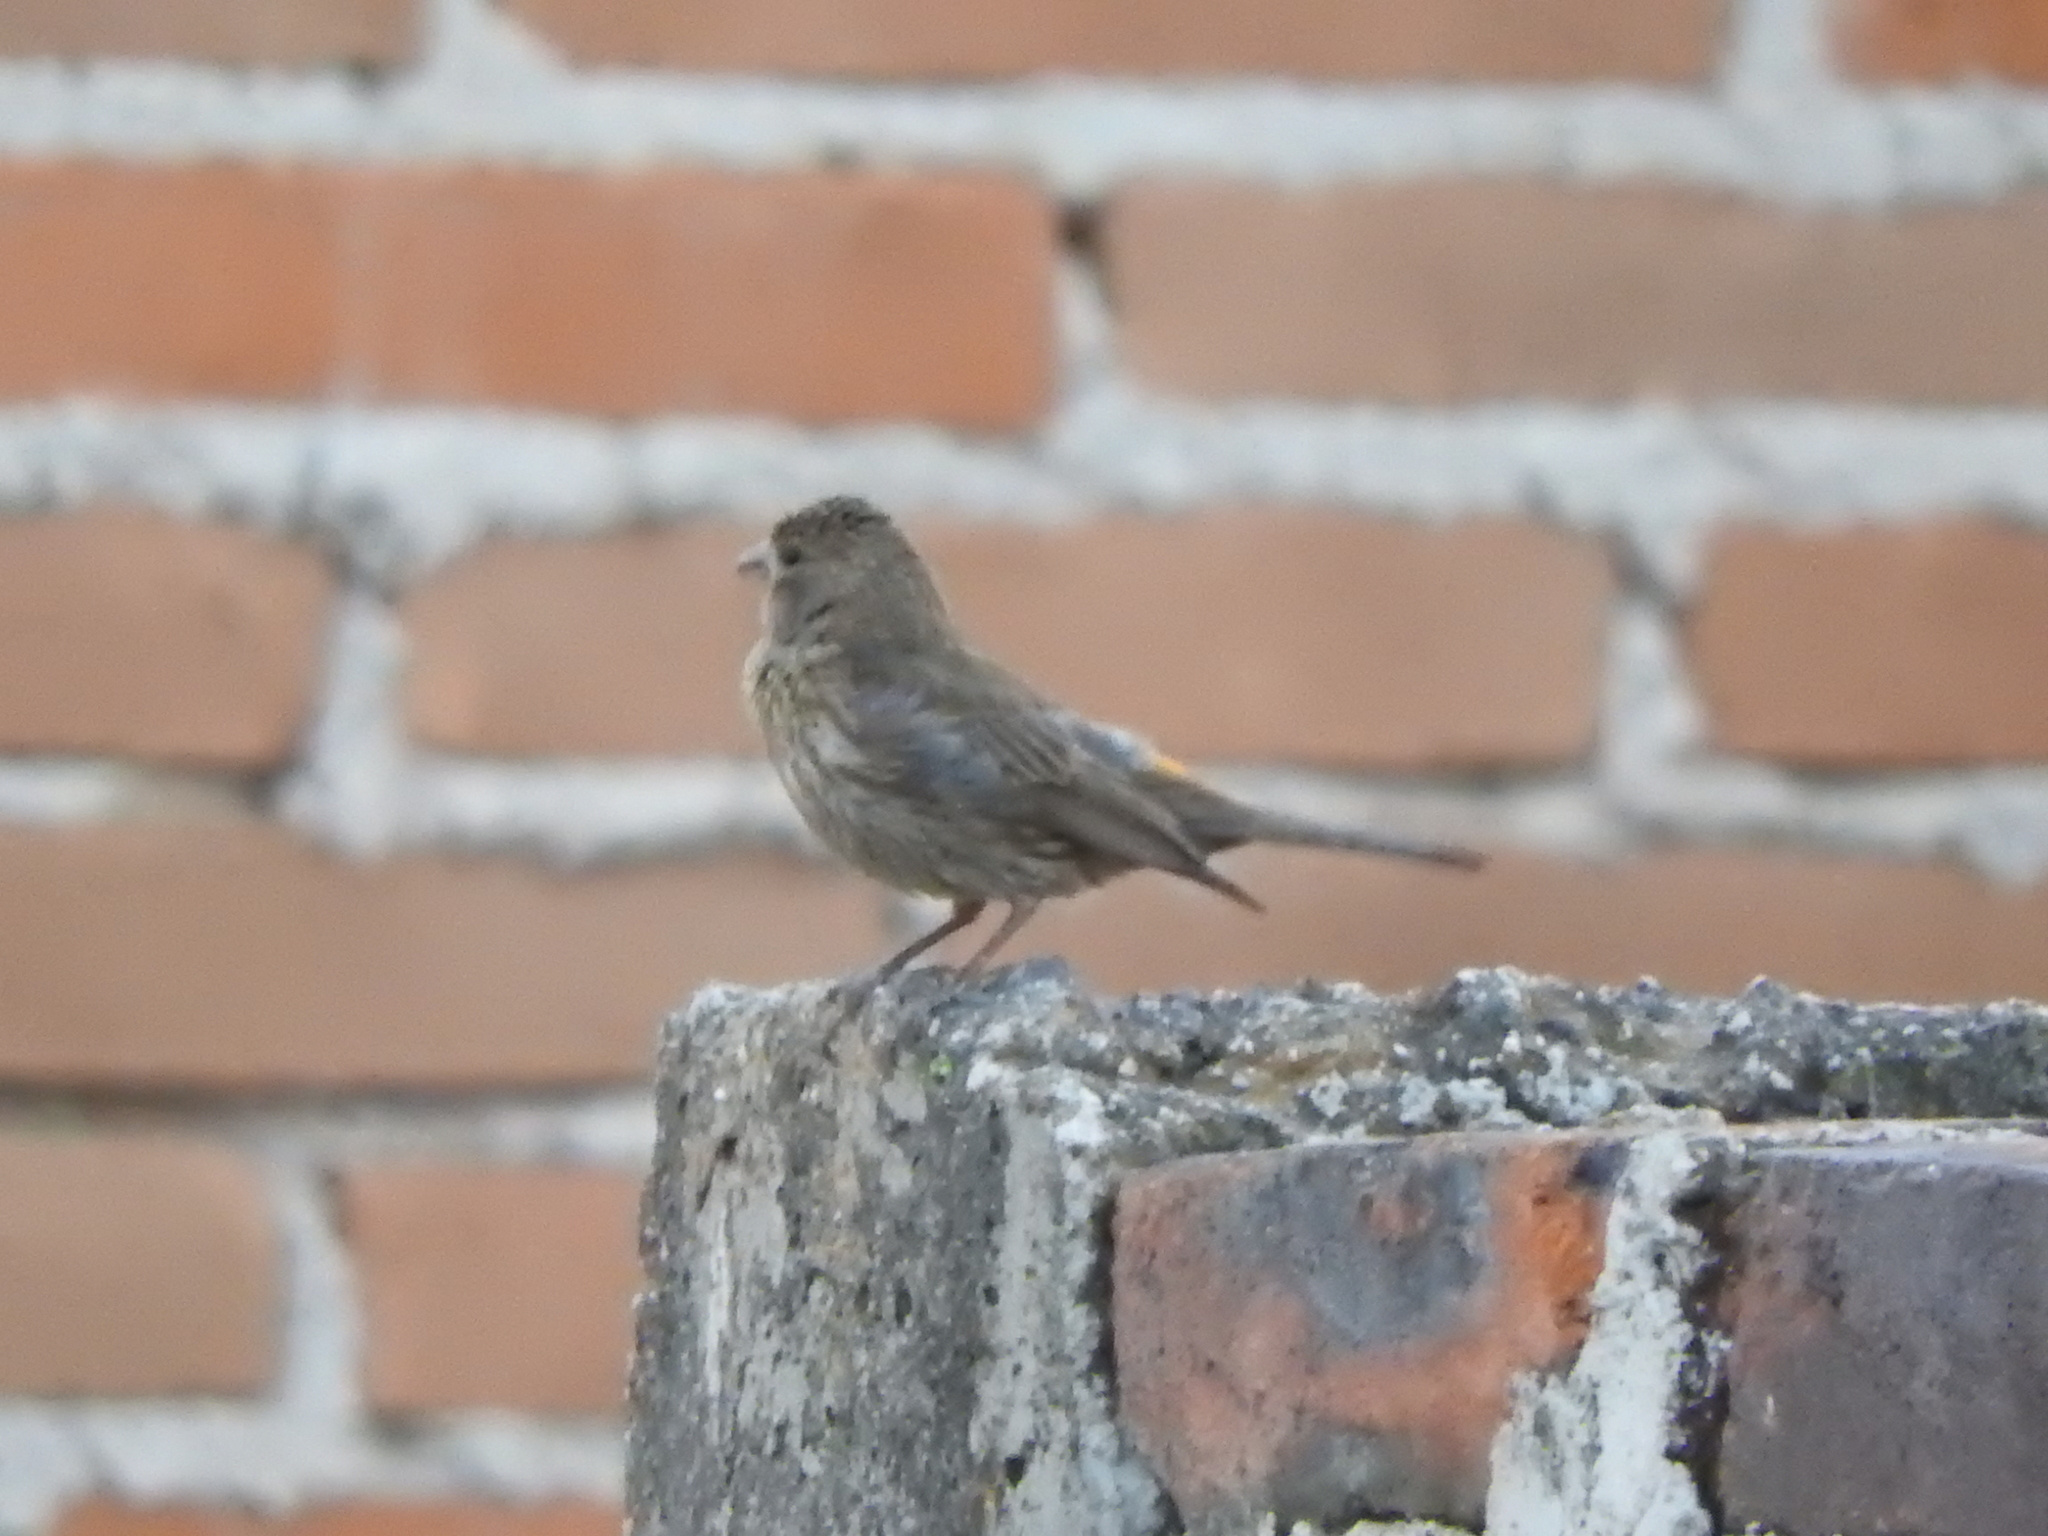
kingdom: Animalia
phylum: Chordata
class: Aves
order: Passeriformes
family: Fringillidae
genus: Haemorhous
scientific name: Haemorhous mexicanus
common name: House finch
